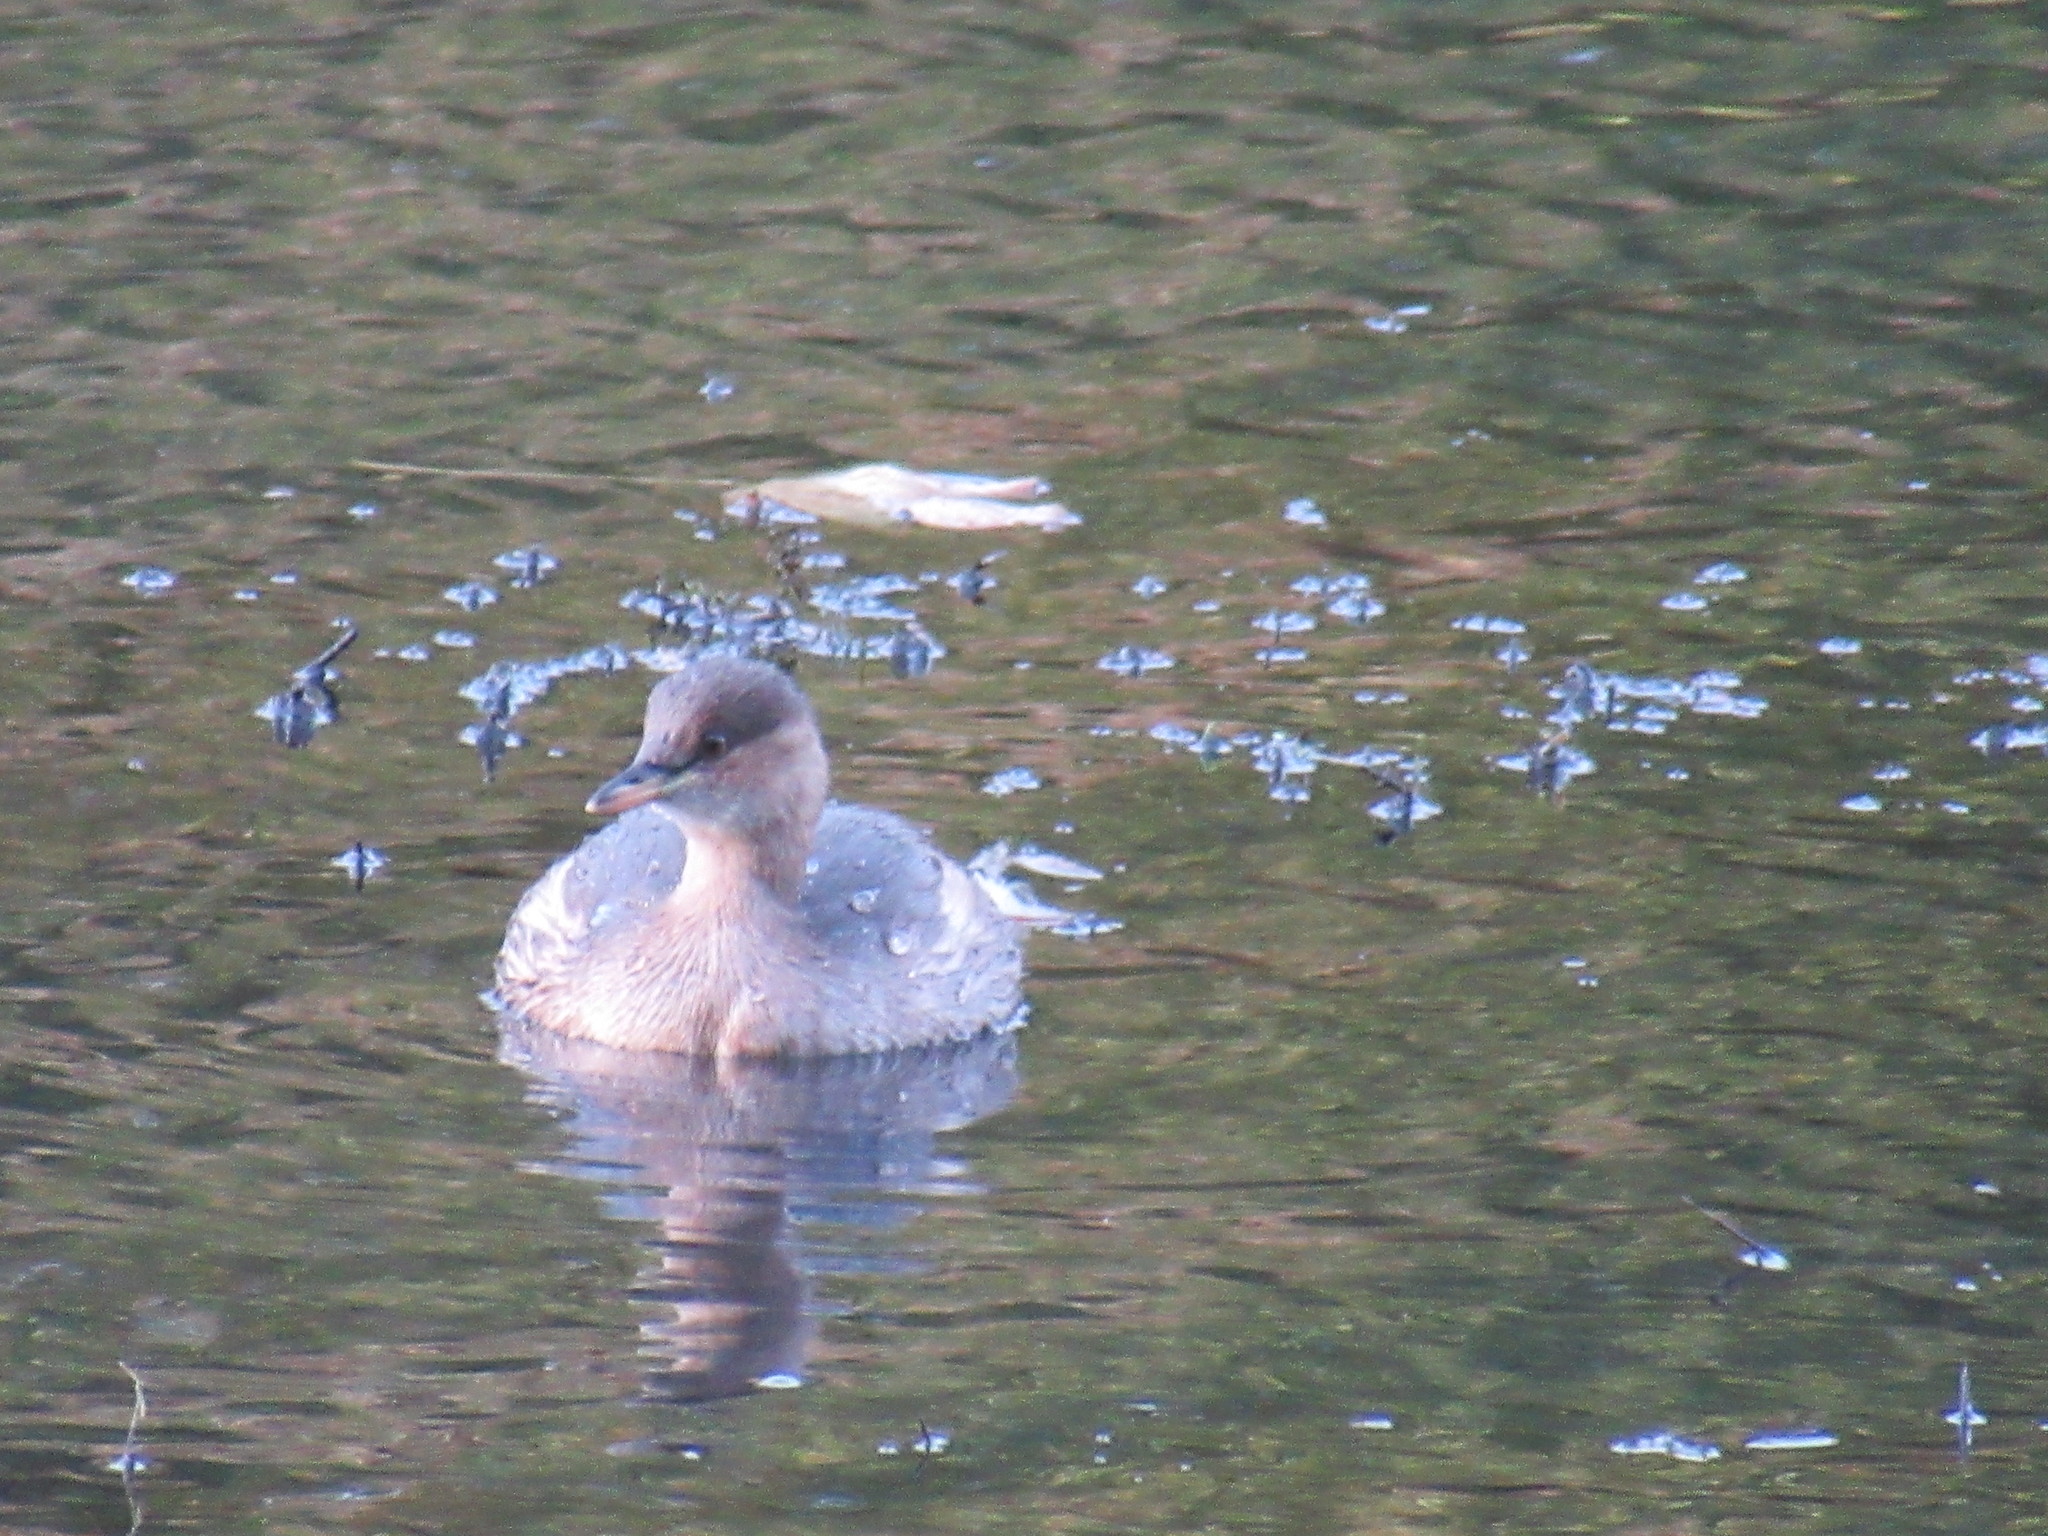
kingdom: Animalia
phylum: Chordata
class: Aves
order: Podicipediformes
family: Podicipedidae
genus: Tachybaptus
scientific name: Tachybaptus ruficollis
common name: Little grebe
